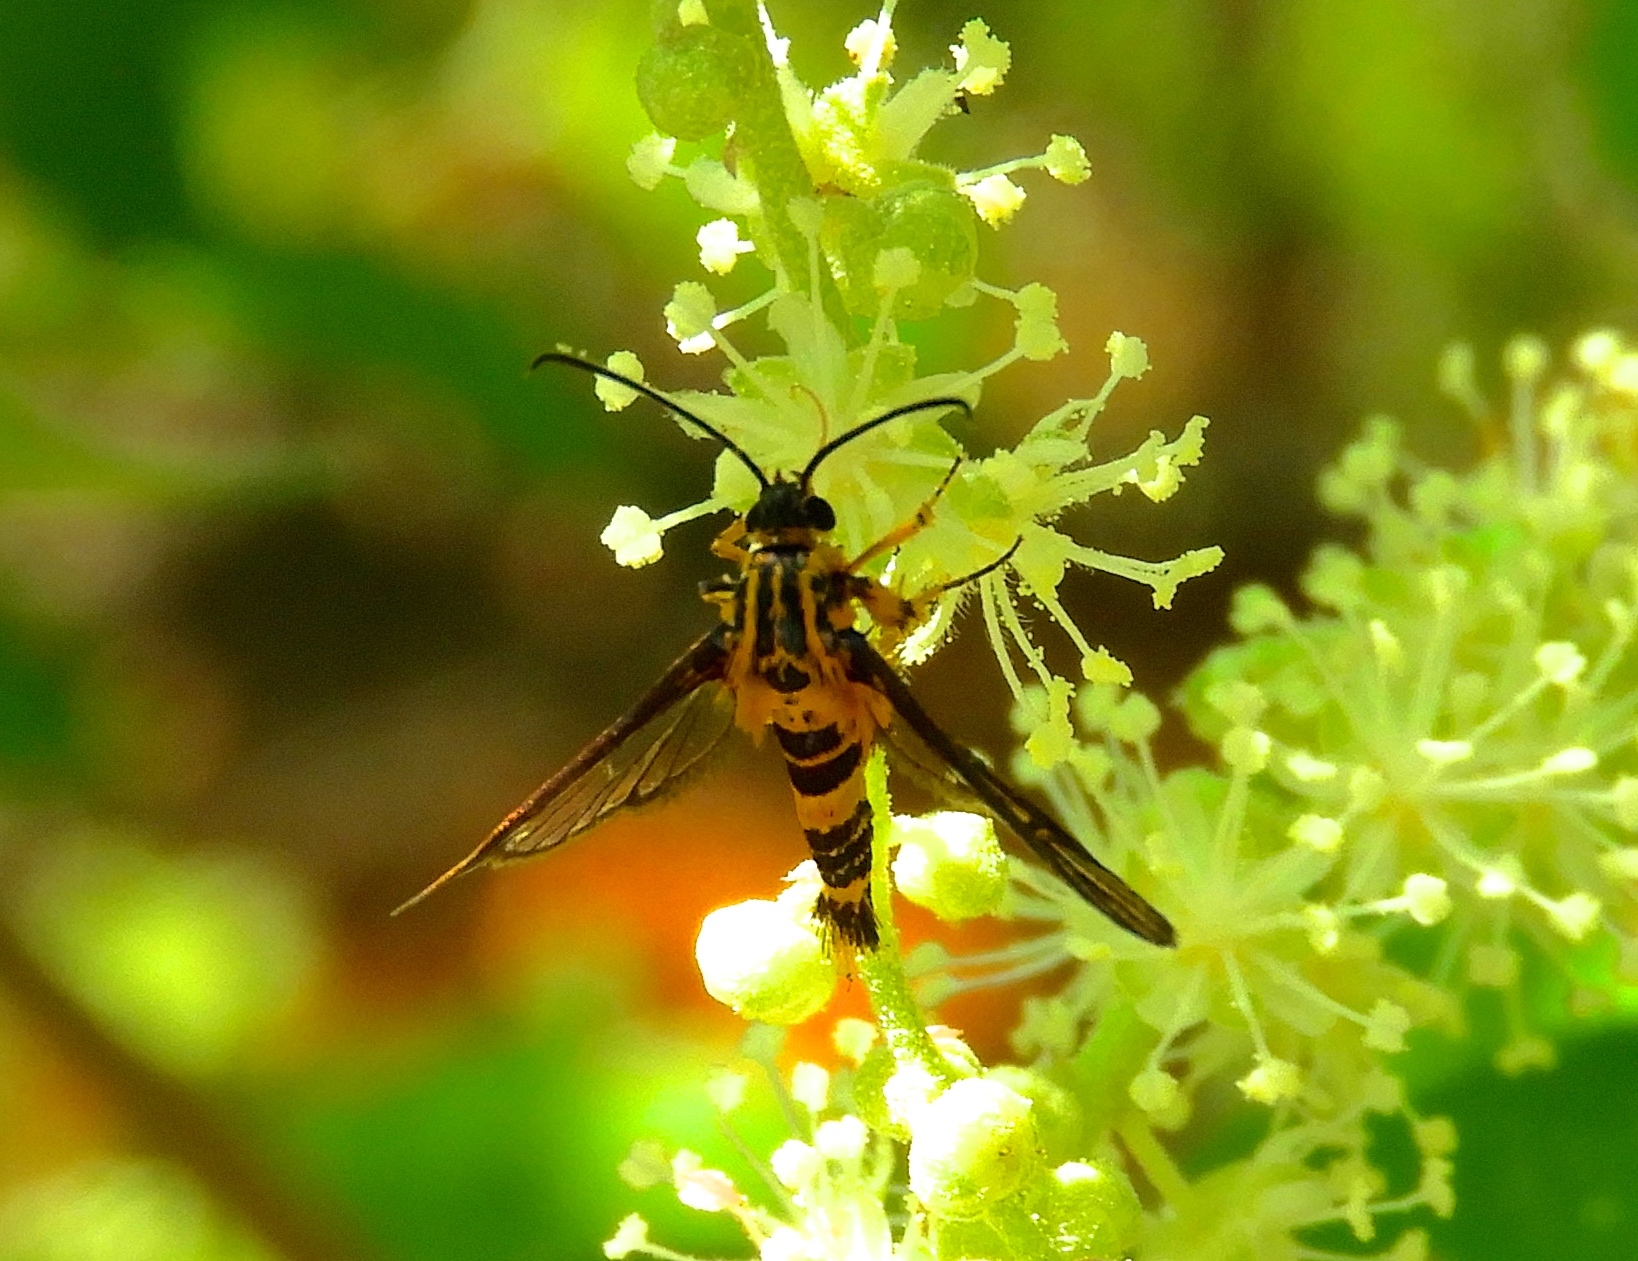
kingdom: Animalia
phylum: Arthropoda
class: Insecta
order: Lepidoptera
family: Sesiidae
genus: Synanthedon
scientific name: Synanthedon
